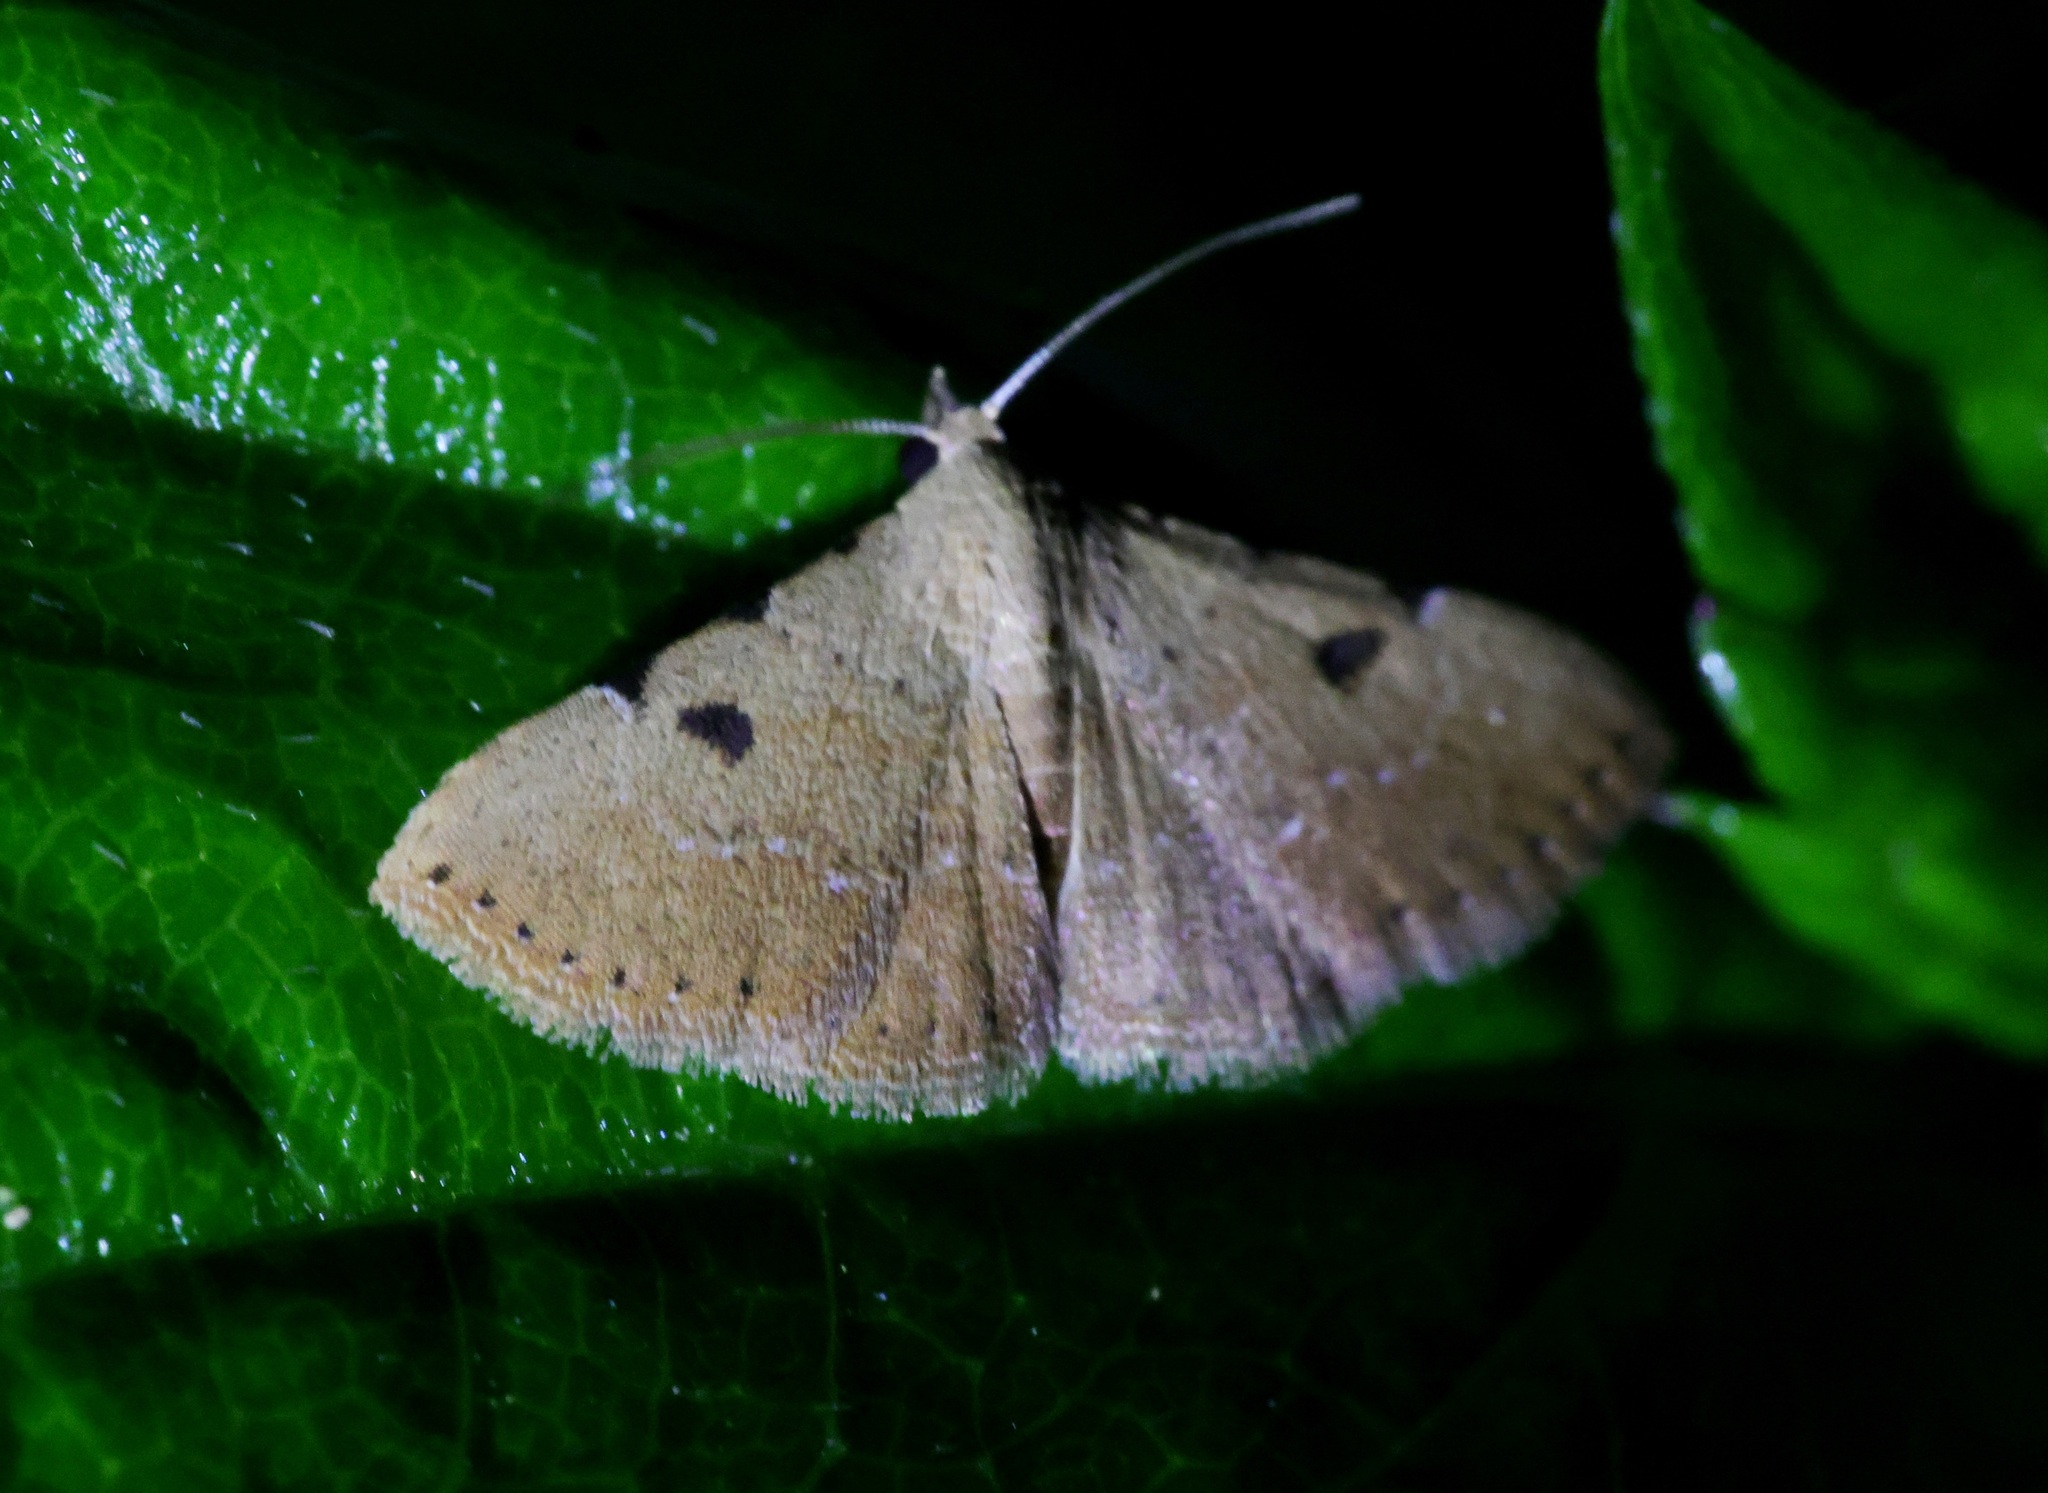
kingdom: Animalia
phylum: Arthropoda
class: Insecta
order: Lepidoptera
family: Erebidae
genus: Corgatha
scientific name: Corgatha trichogyia
